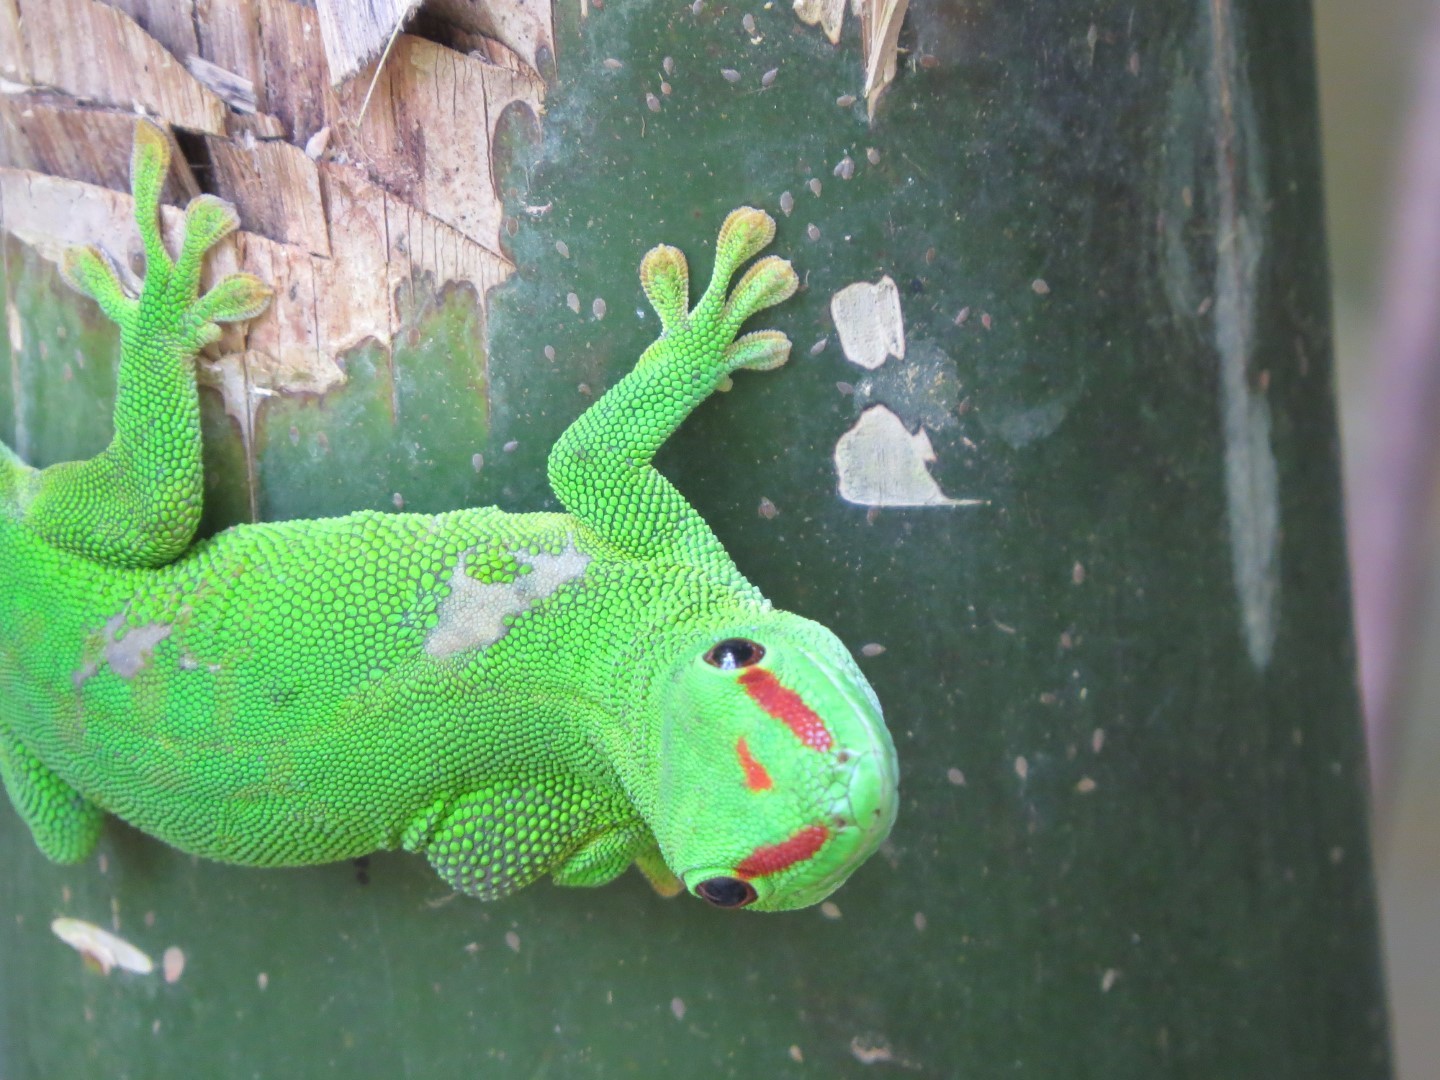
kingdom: Animalia
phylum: Chordata
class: Squamata
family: Gekkonidae
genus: Phelsuma
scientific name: Phelsuma grandis
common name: Madagascar giant day gecko
